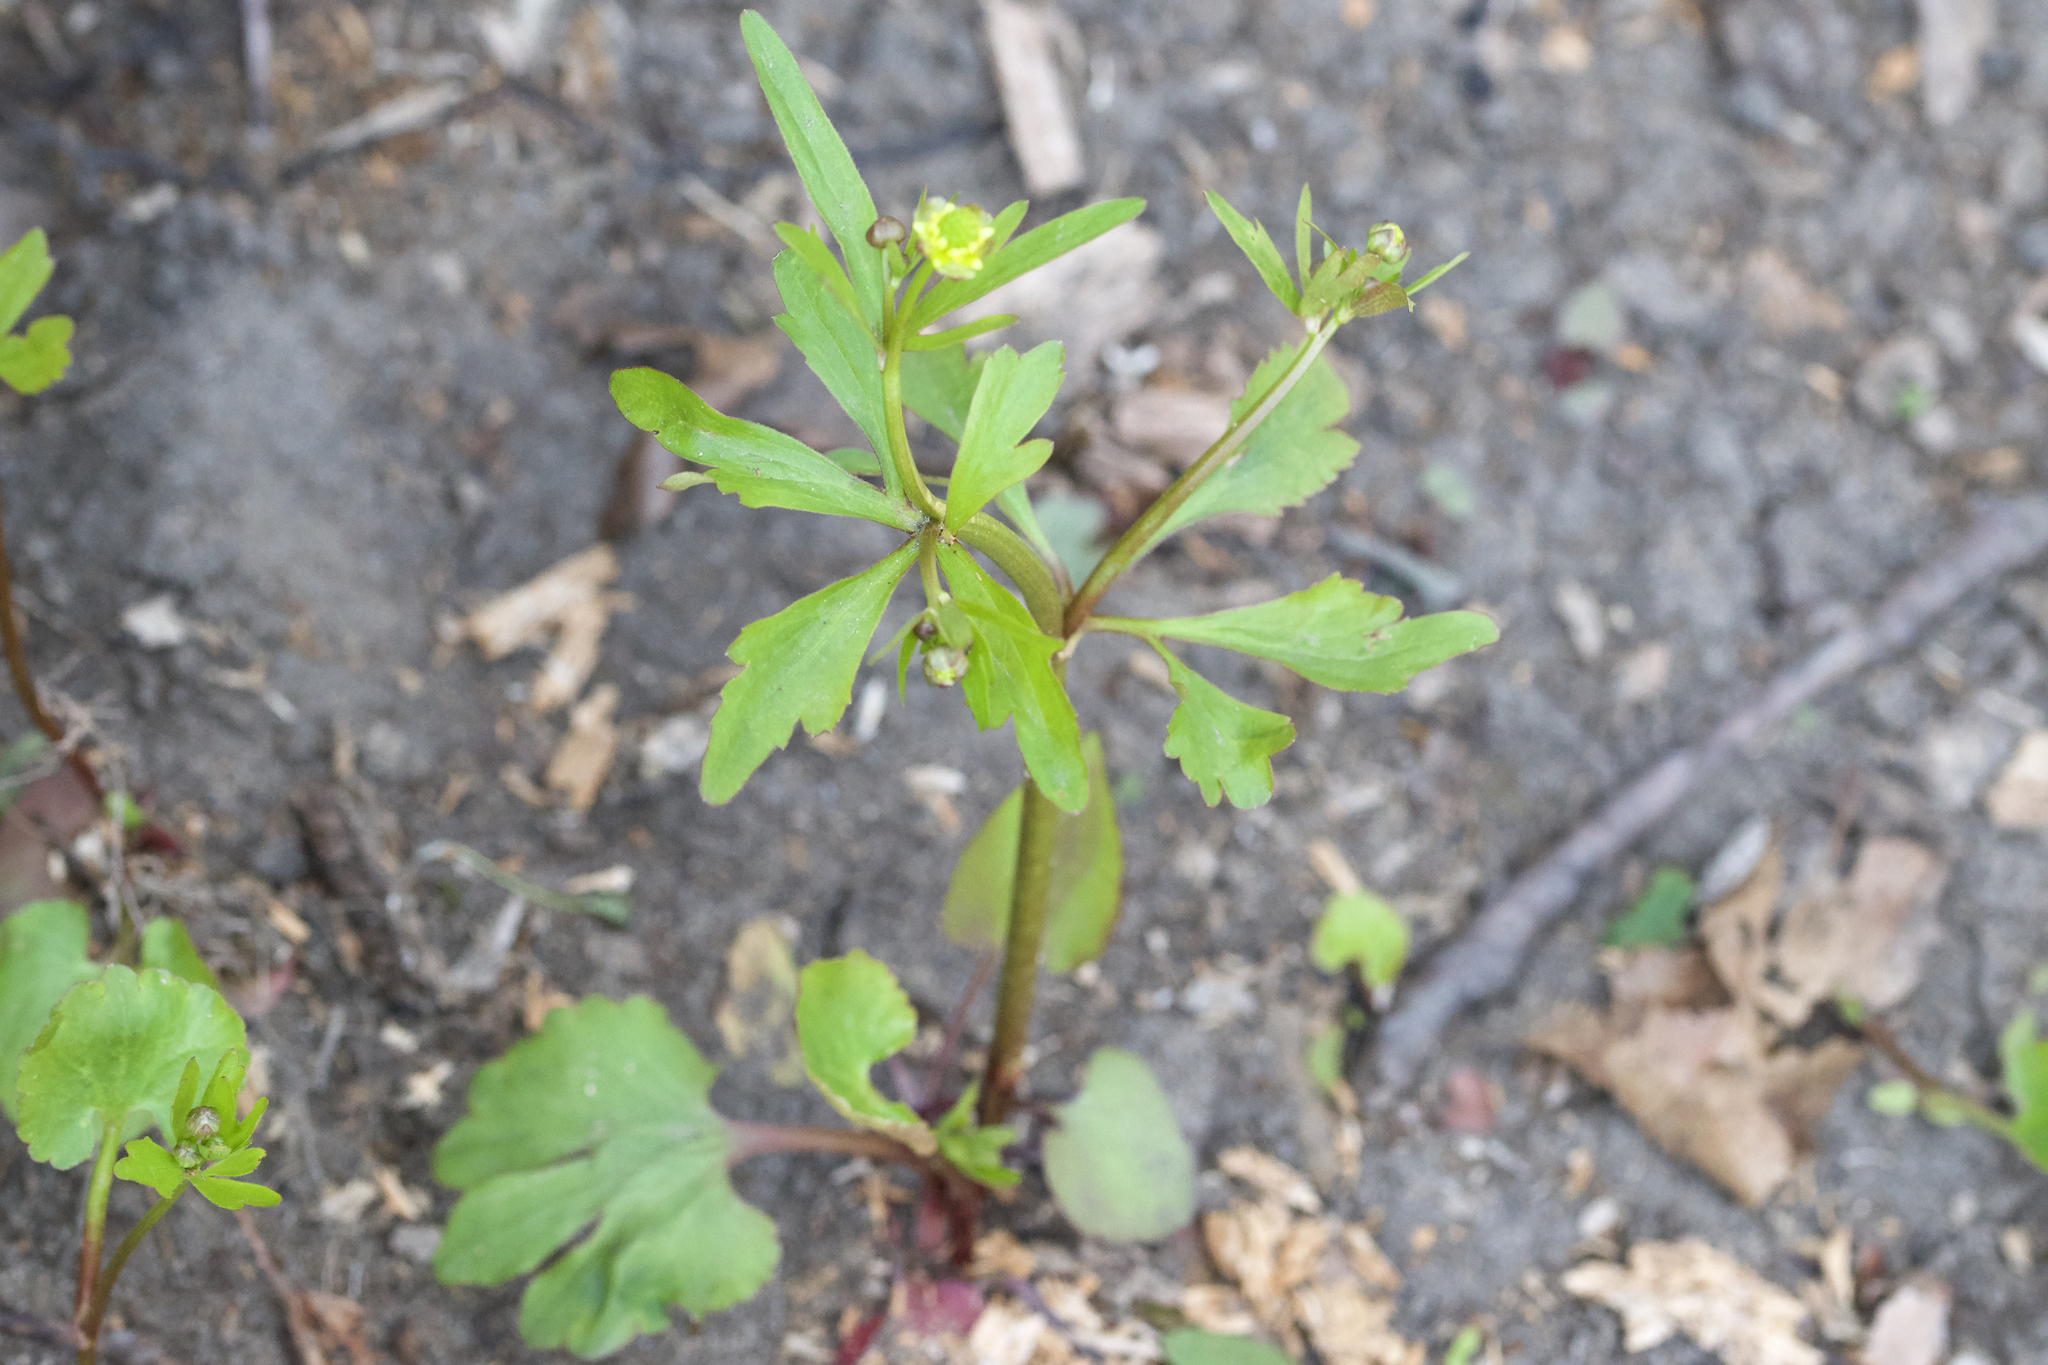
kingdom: Plantae
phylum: Tracheophyta
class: Magnoliopsida
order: Ranunculales
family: Ranunculaceae
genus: Ranunculus
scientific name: Ranunculus abortivus
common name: Early wood buttercup
